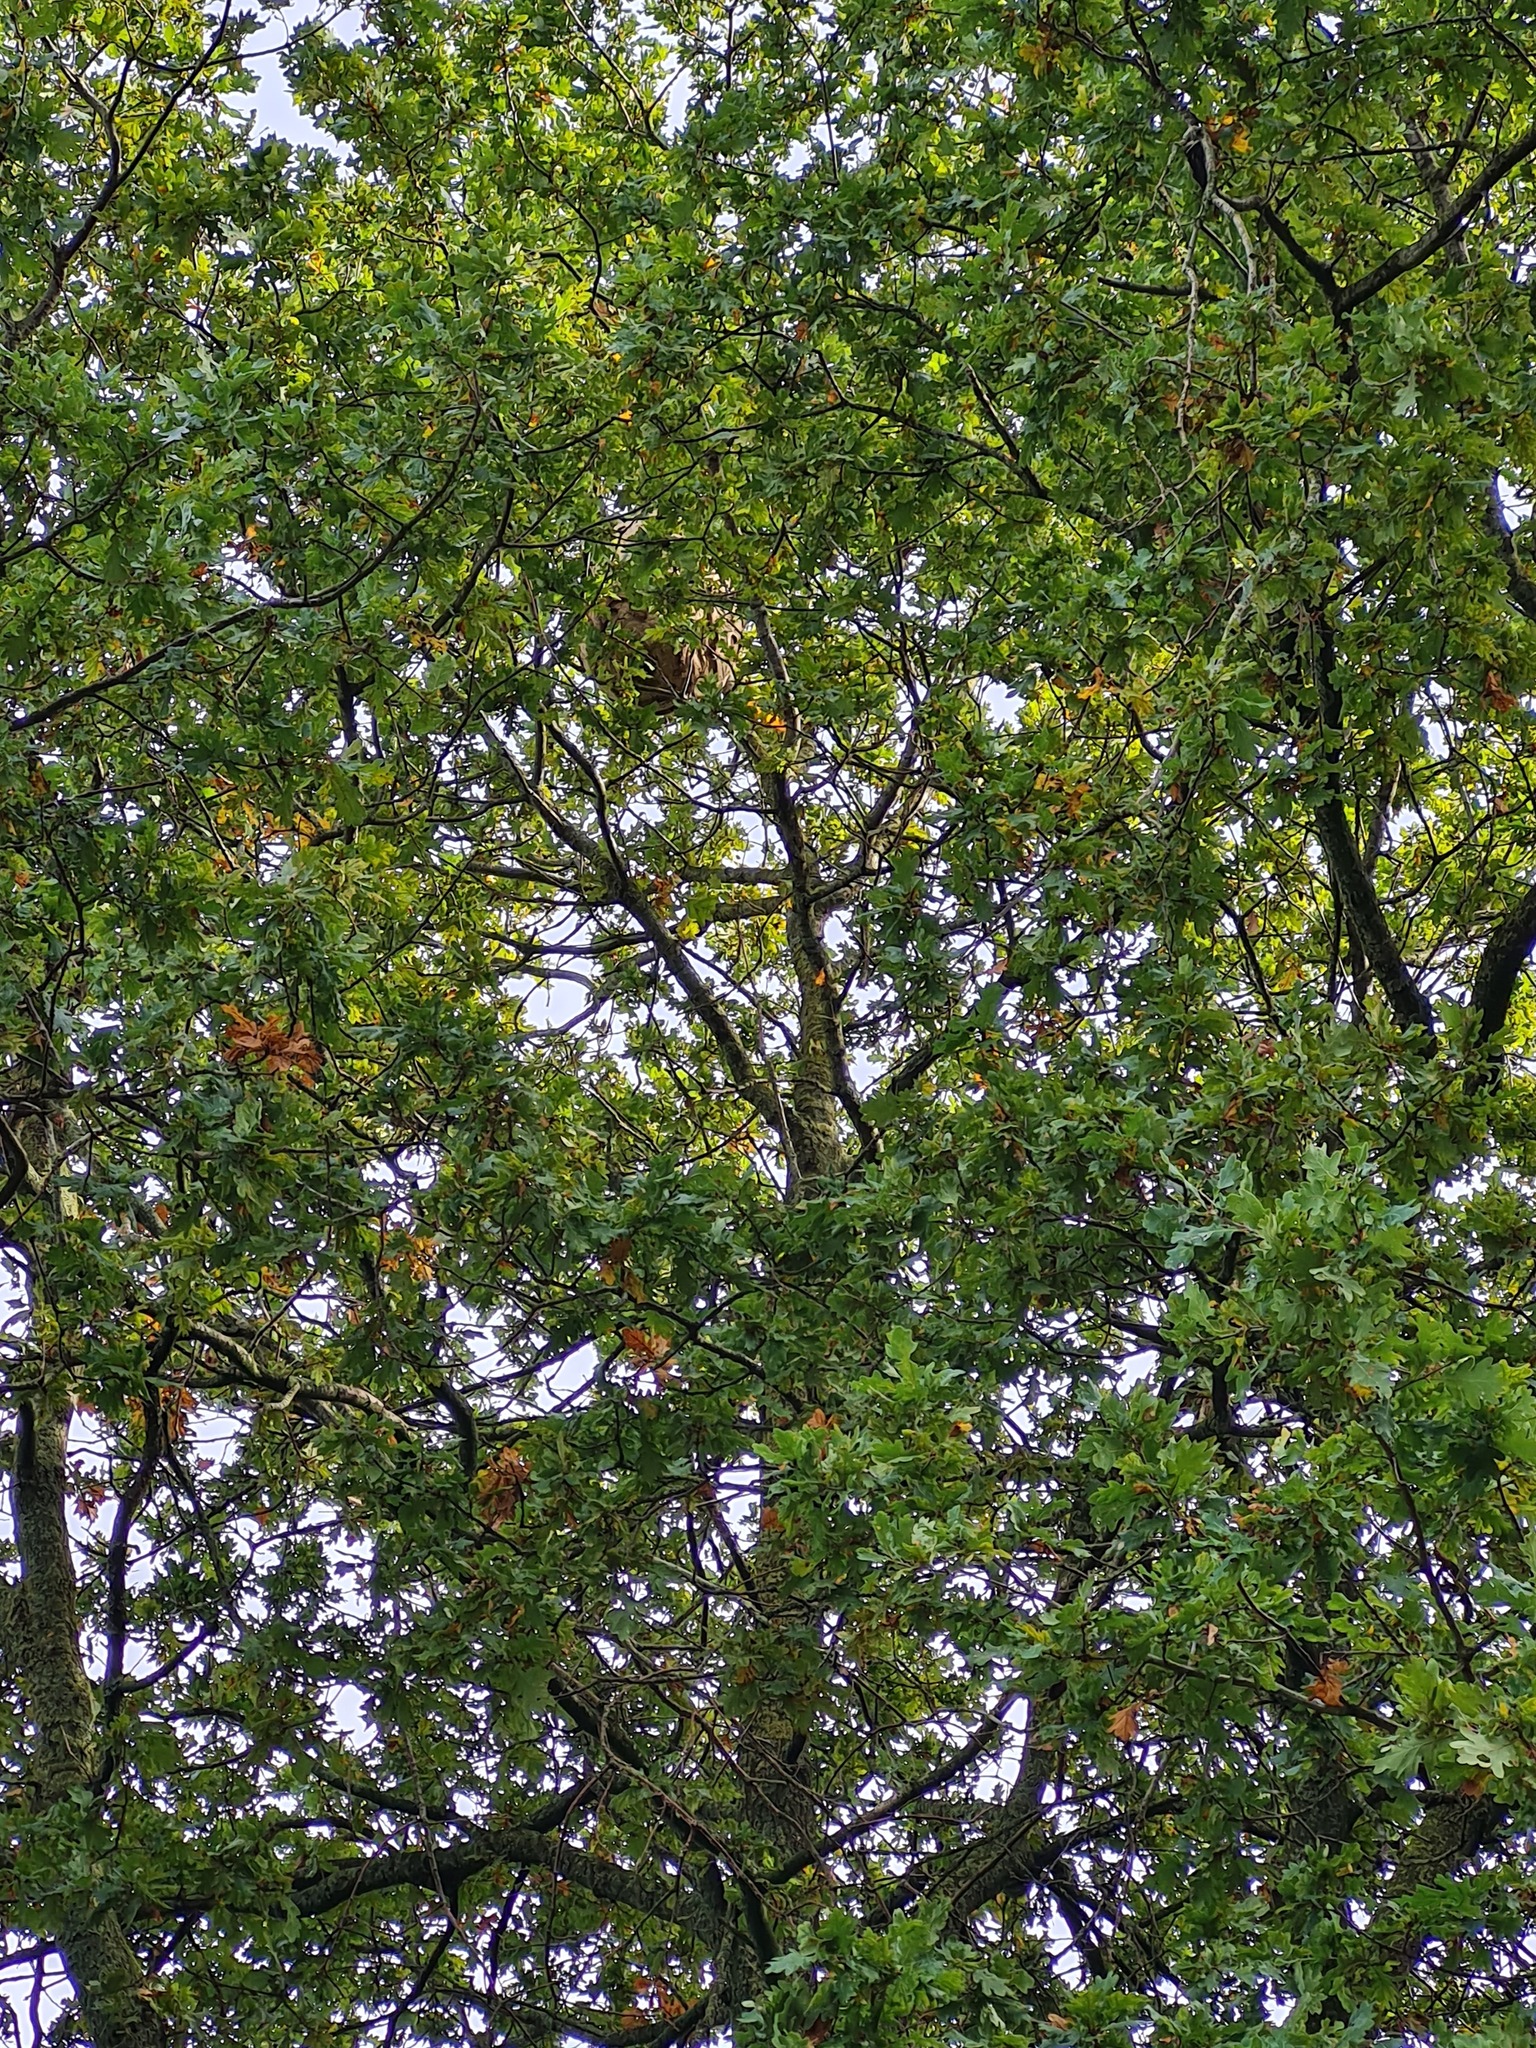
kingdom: Animalia
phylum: Arthropoda
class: Insecta
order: Hymenoptera
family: Vespidae
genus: Vespa
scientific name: Vespa velutina
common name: Asian hornet
